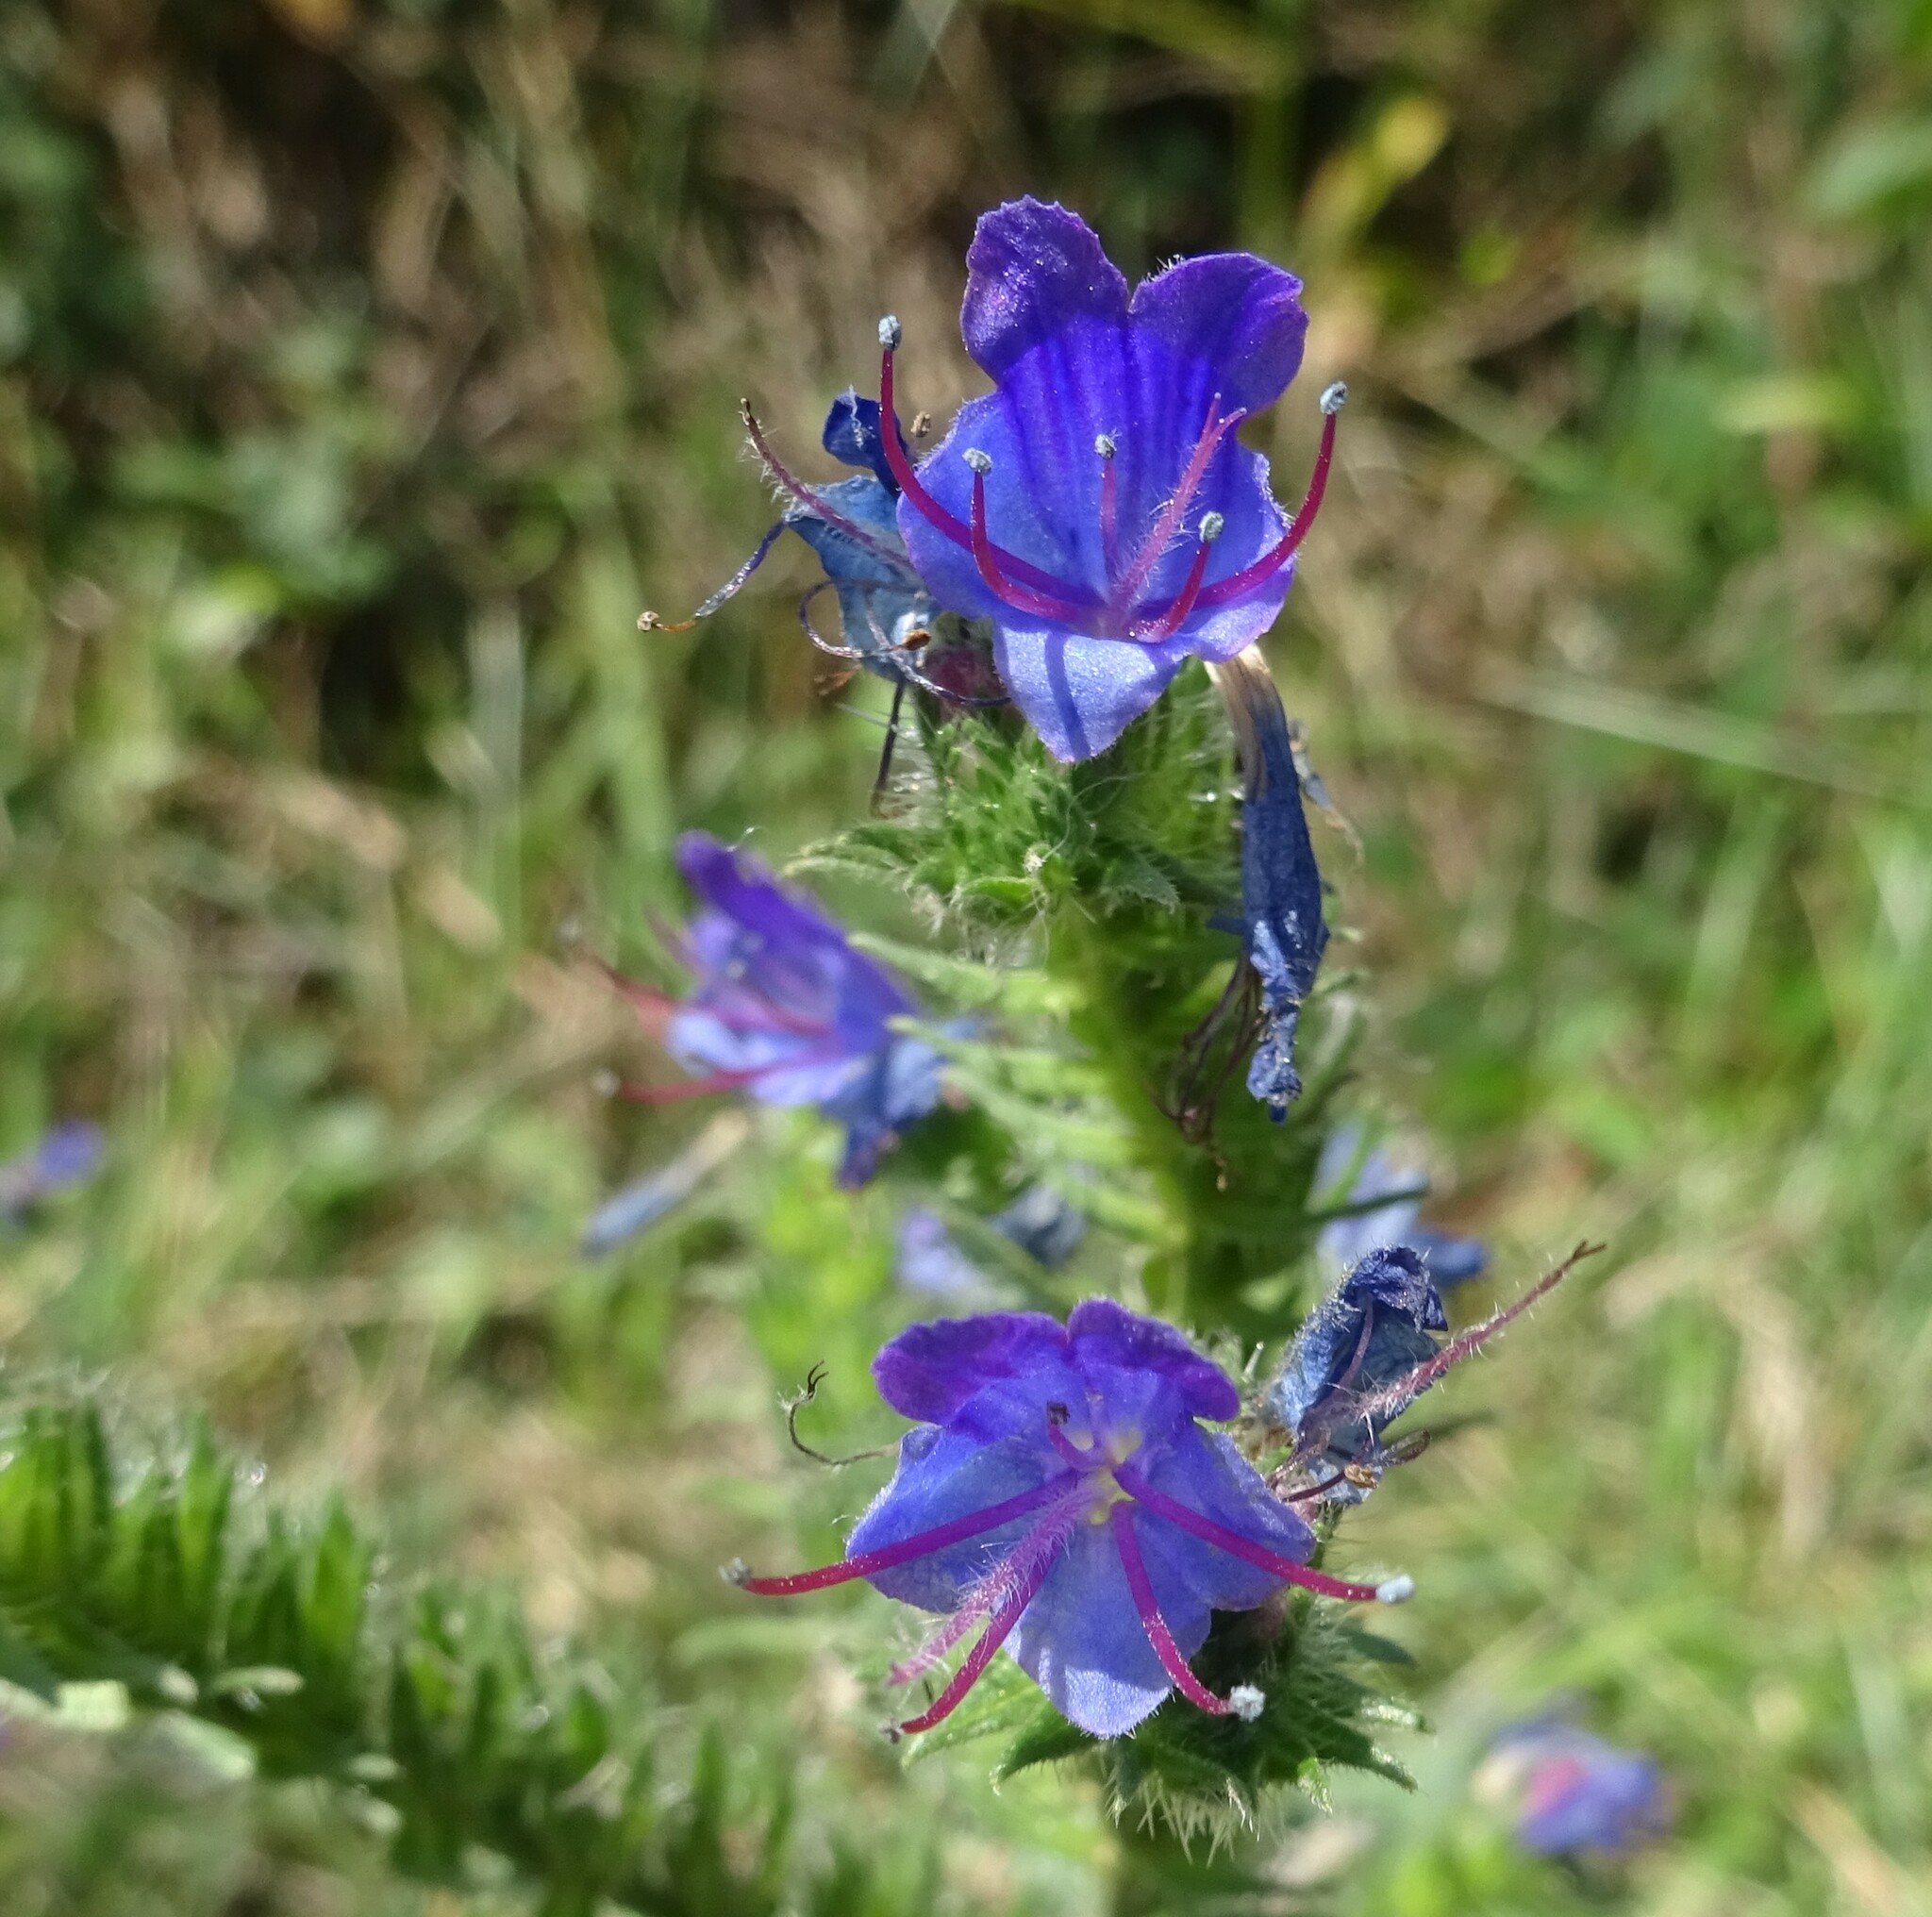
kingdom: Plantae
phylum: Tracheophyta
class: Magnoliopsida
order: Boraginales
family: Boraginaceae
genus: Echium
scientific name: Echium vulgare
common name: Common viper's bugloss
